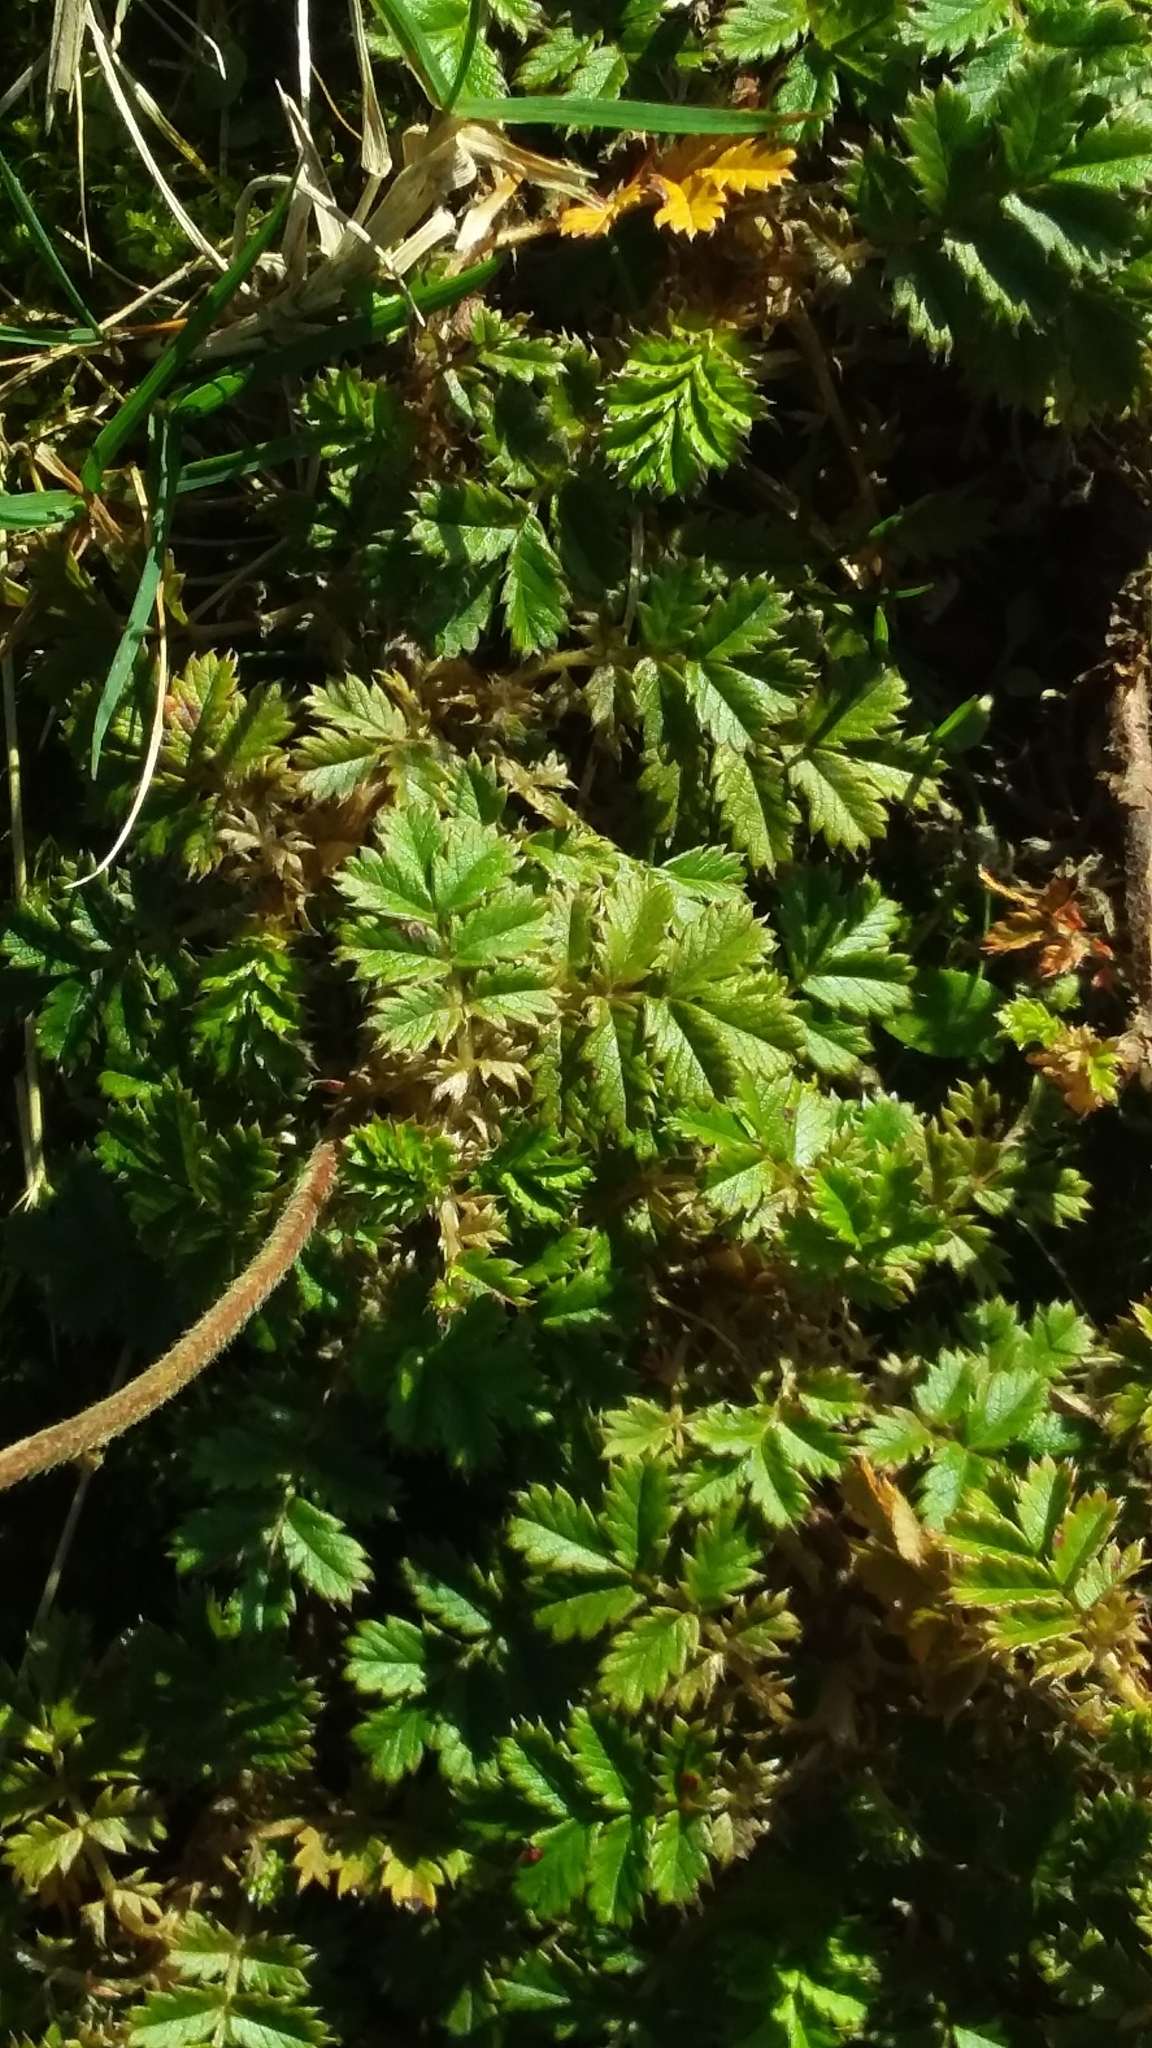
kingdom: Plantae
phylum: Tracheophyta
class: Magnoliopsida
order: Rosales
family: Rosaceae
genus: Acaena
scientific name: Acaena anserinifolia
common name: Bronze pirri-pirri-bur
